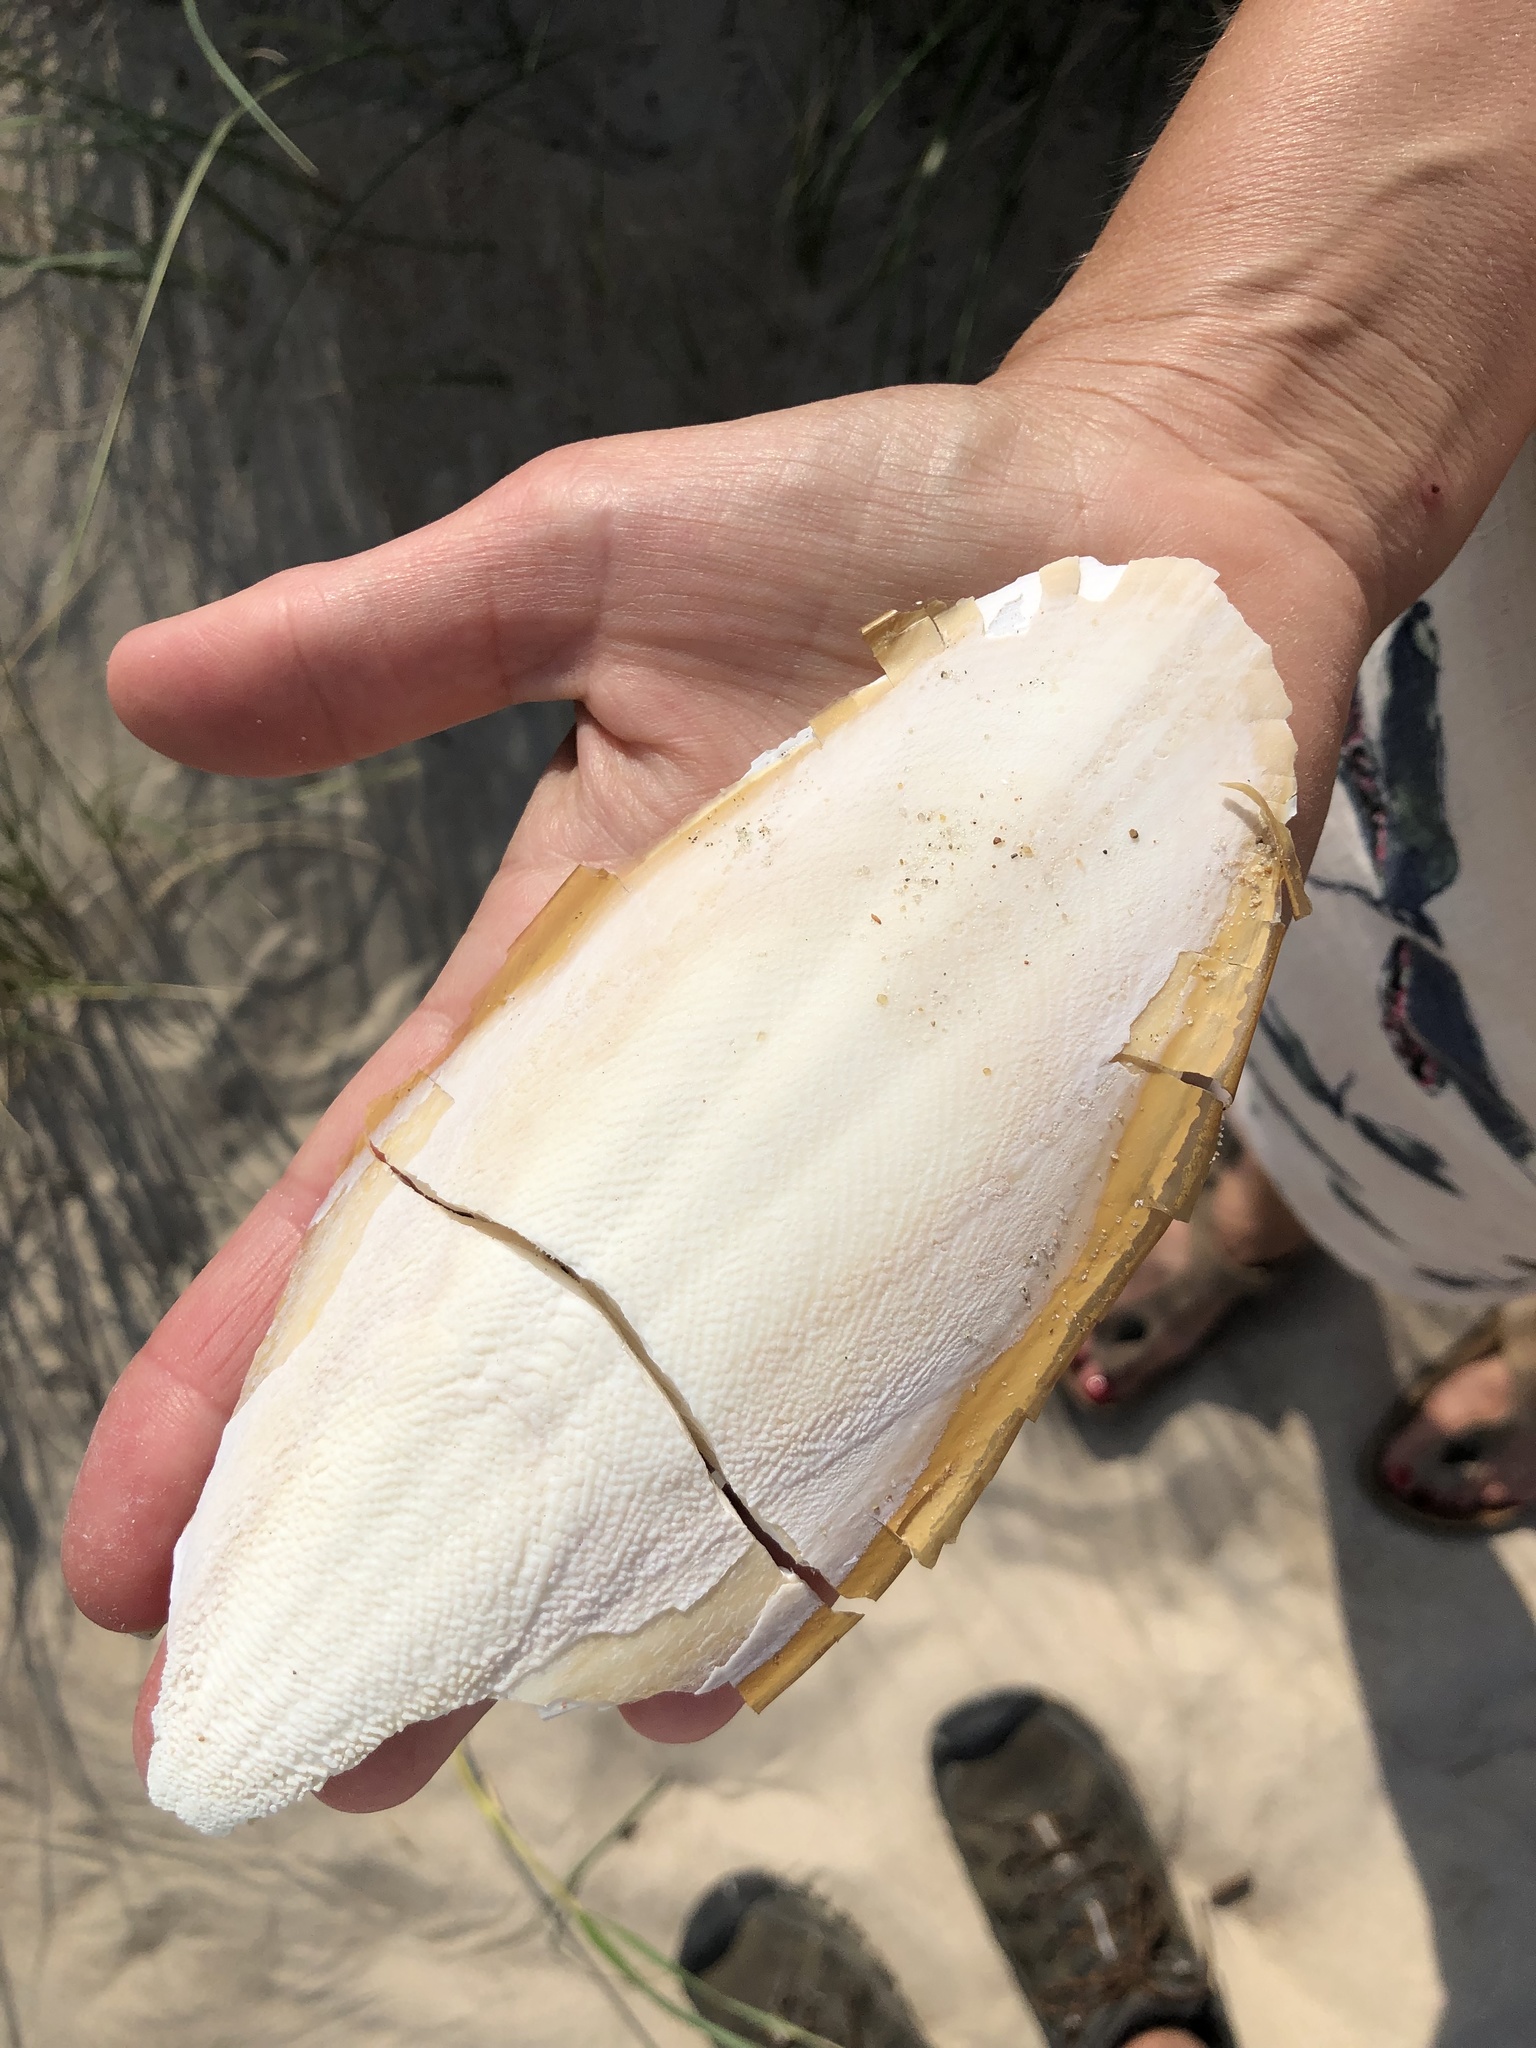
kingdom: Animalia
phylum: Mollusca
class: Cephalopoda
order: Sepiida
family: Sepiidae
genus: Sepia
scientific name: Sepia officinalis
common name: Common cuttlefish
